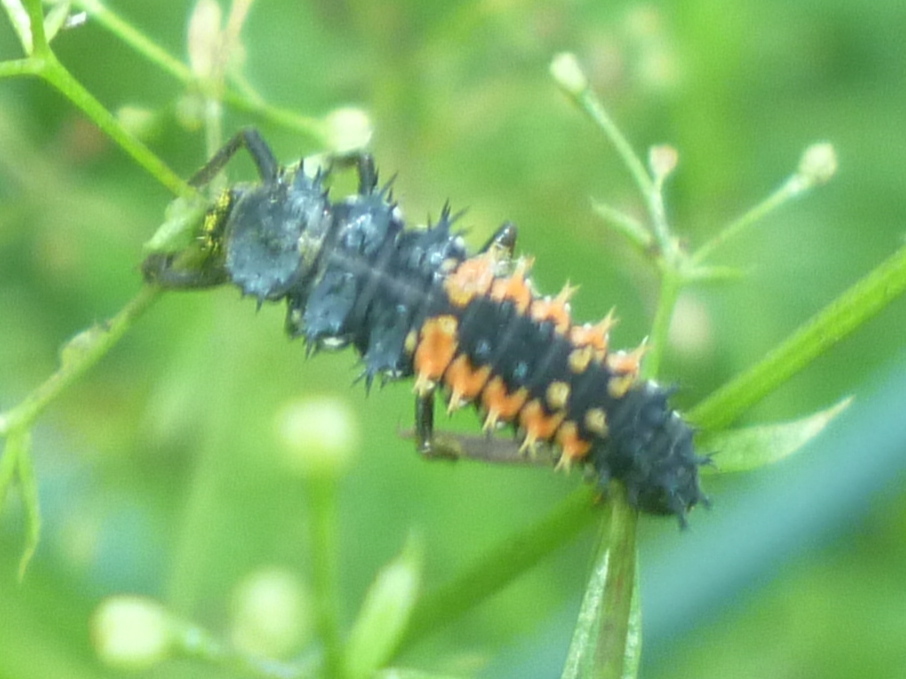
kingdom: Animalia
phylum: Arthropoda
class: Insecta
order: Coleoptera
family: Coccinellidae
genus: Harmonia
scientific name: Harmonia axyridis
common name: Harlequin ladybird
